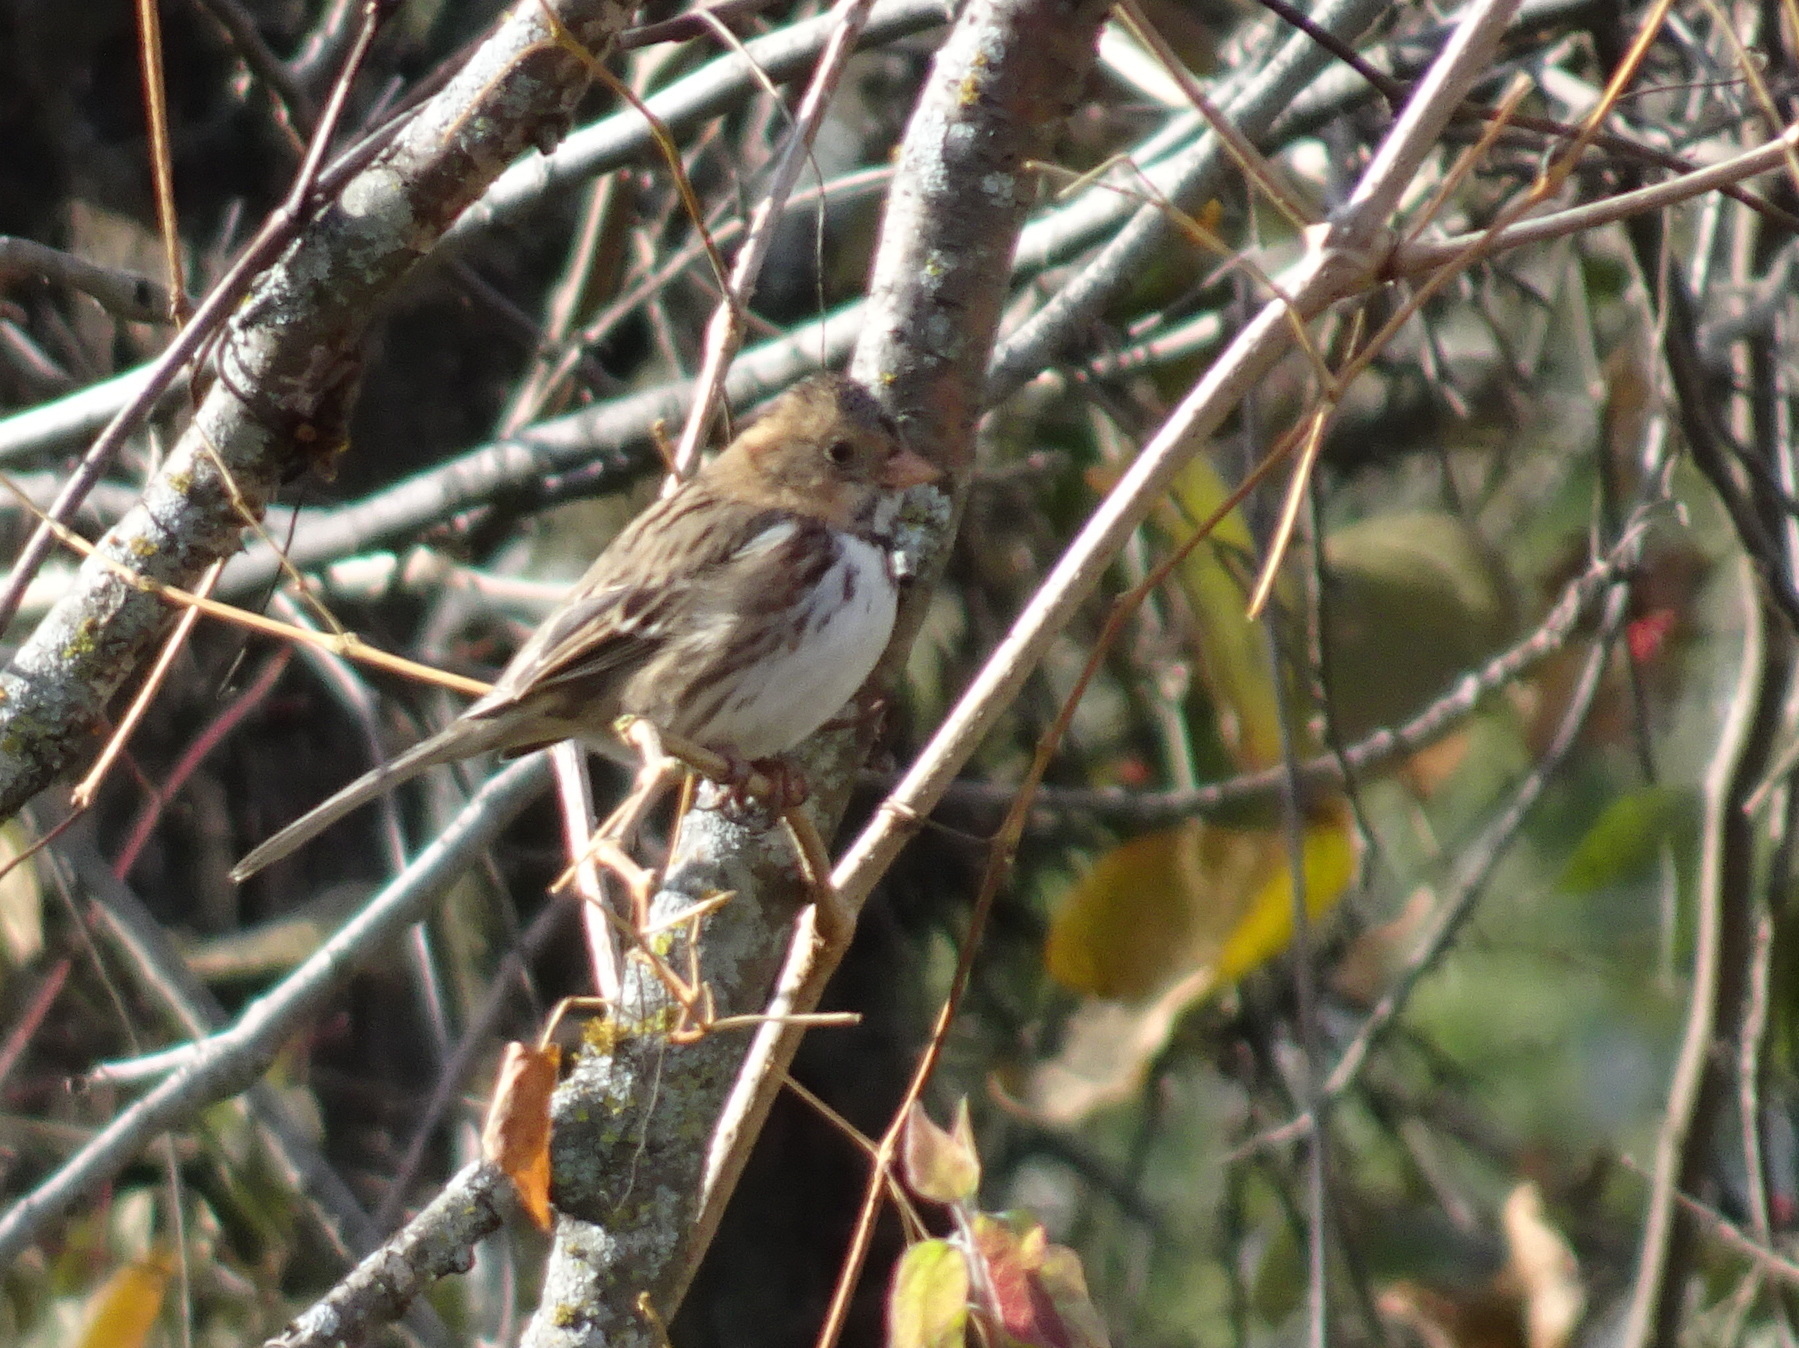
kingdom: Animalia
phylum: Chordata
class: Aves
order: Passeriformes
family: Passerellidae
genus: Zonotrichia
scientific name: Zonotrichia querula
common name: Harris's sparrow
